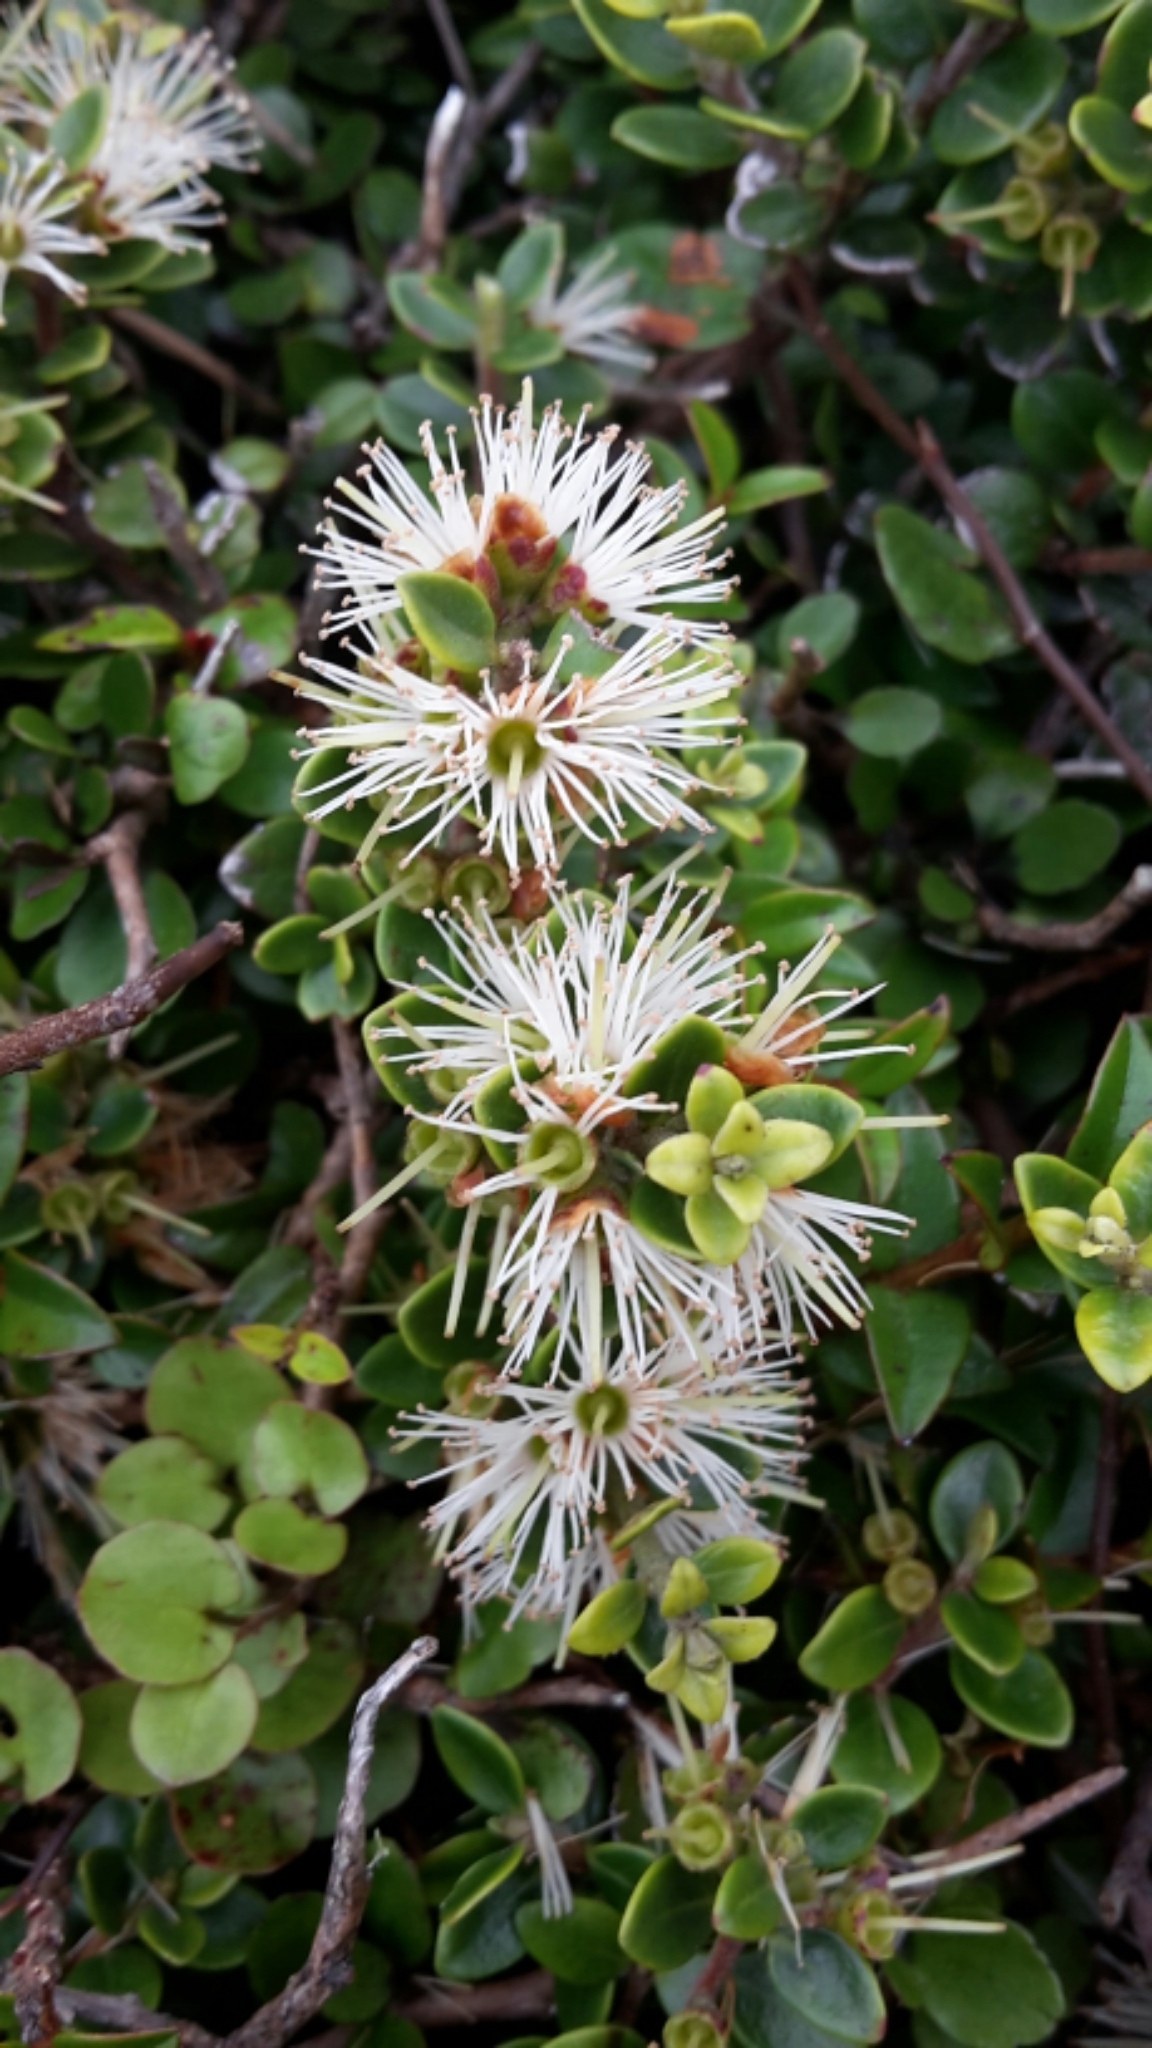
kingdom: Plantae
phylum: Tracheophyta
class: Magnoliopsida
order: Myrtales
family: Myrtaceae
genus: Metrosideros
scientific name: Metrosideros perforata
